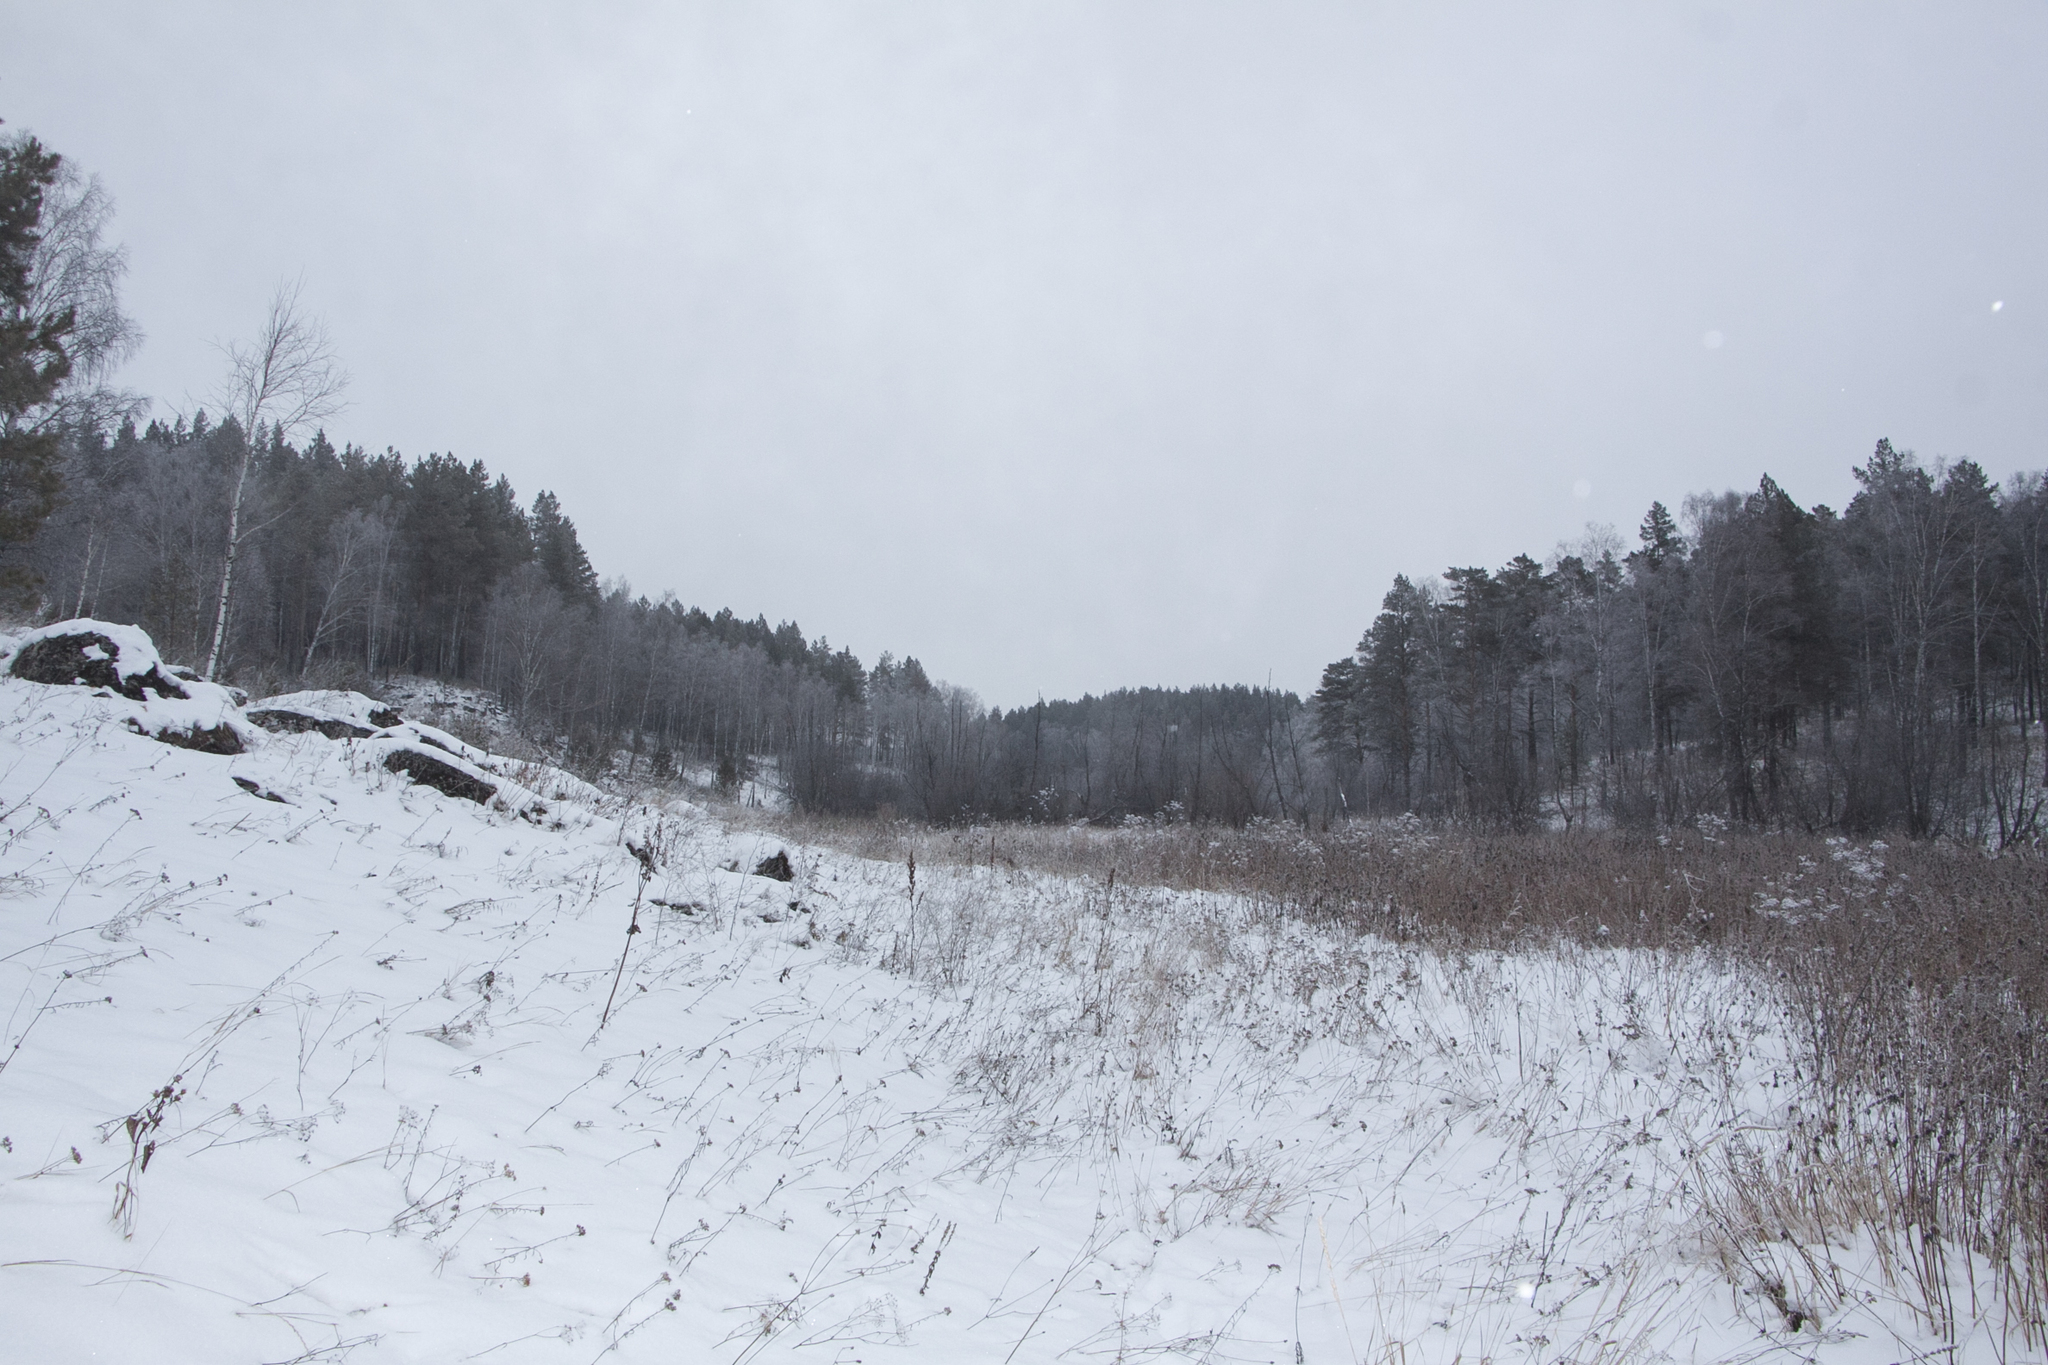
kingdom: Plantae
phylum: Tracheophyta
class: Pinopsida
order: Pinales
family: Pinaceae
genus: Pinus
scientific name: Pinus sylvestris
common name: Scots pine
